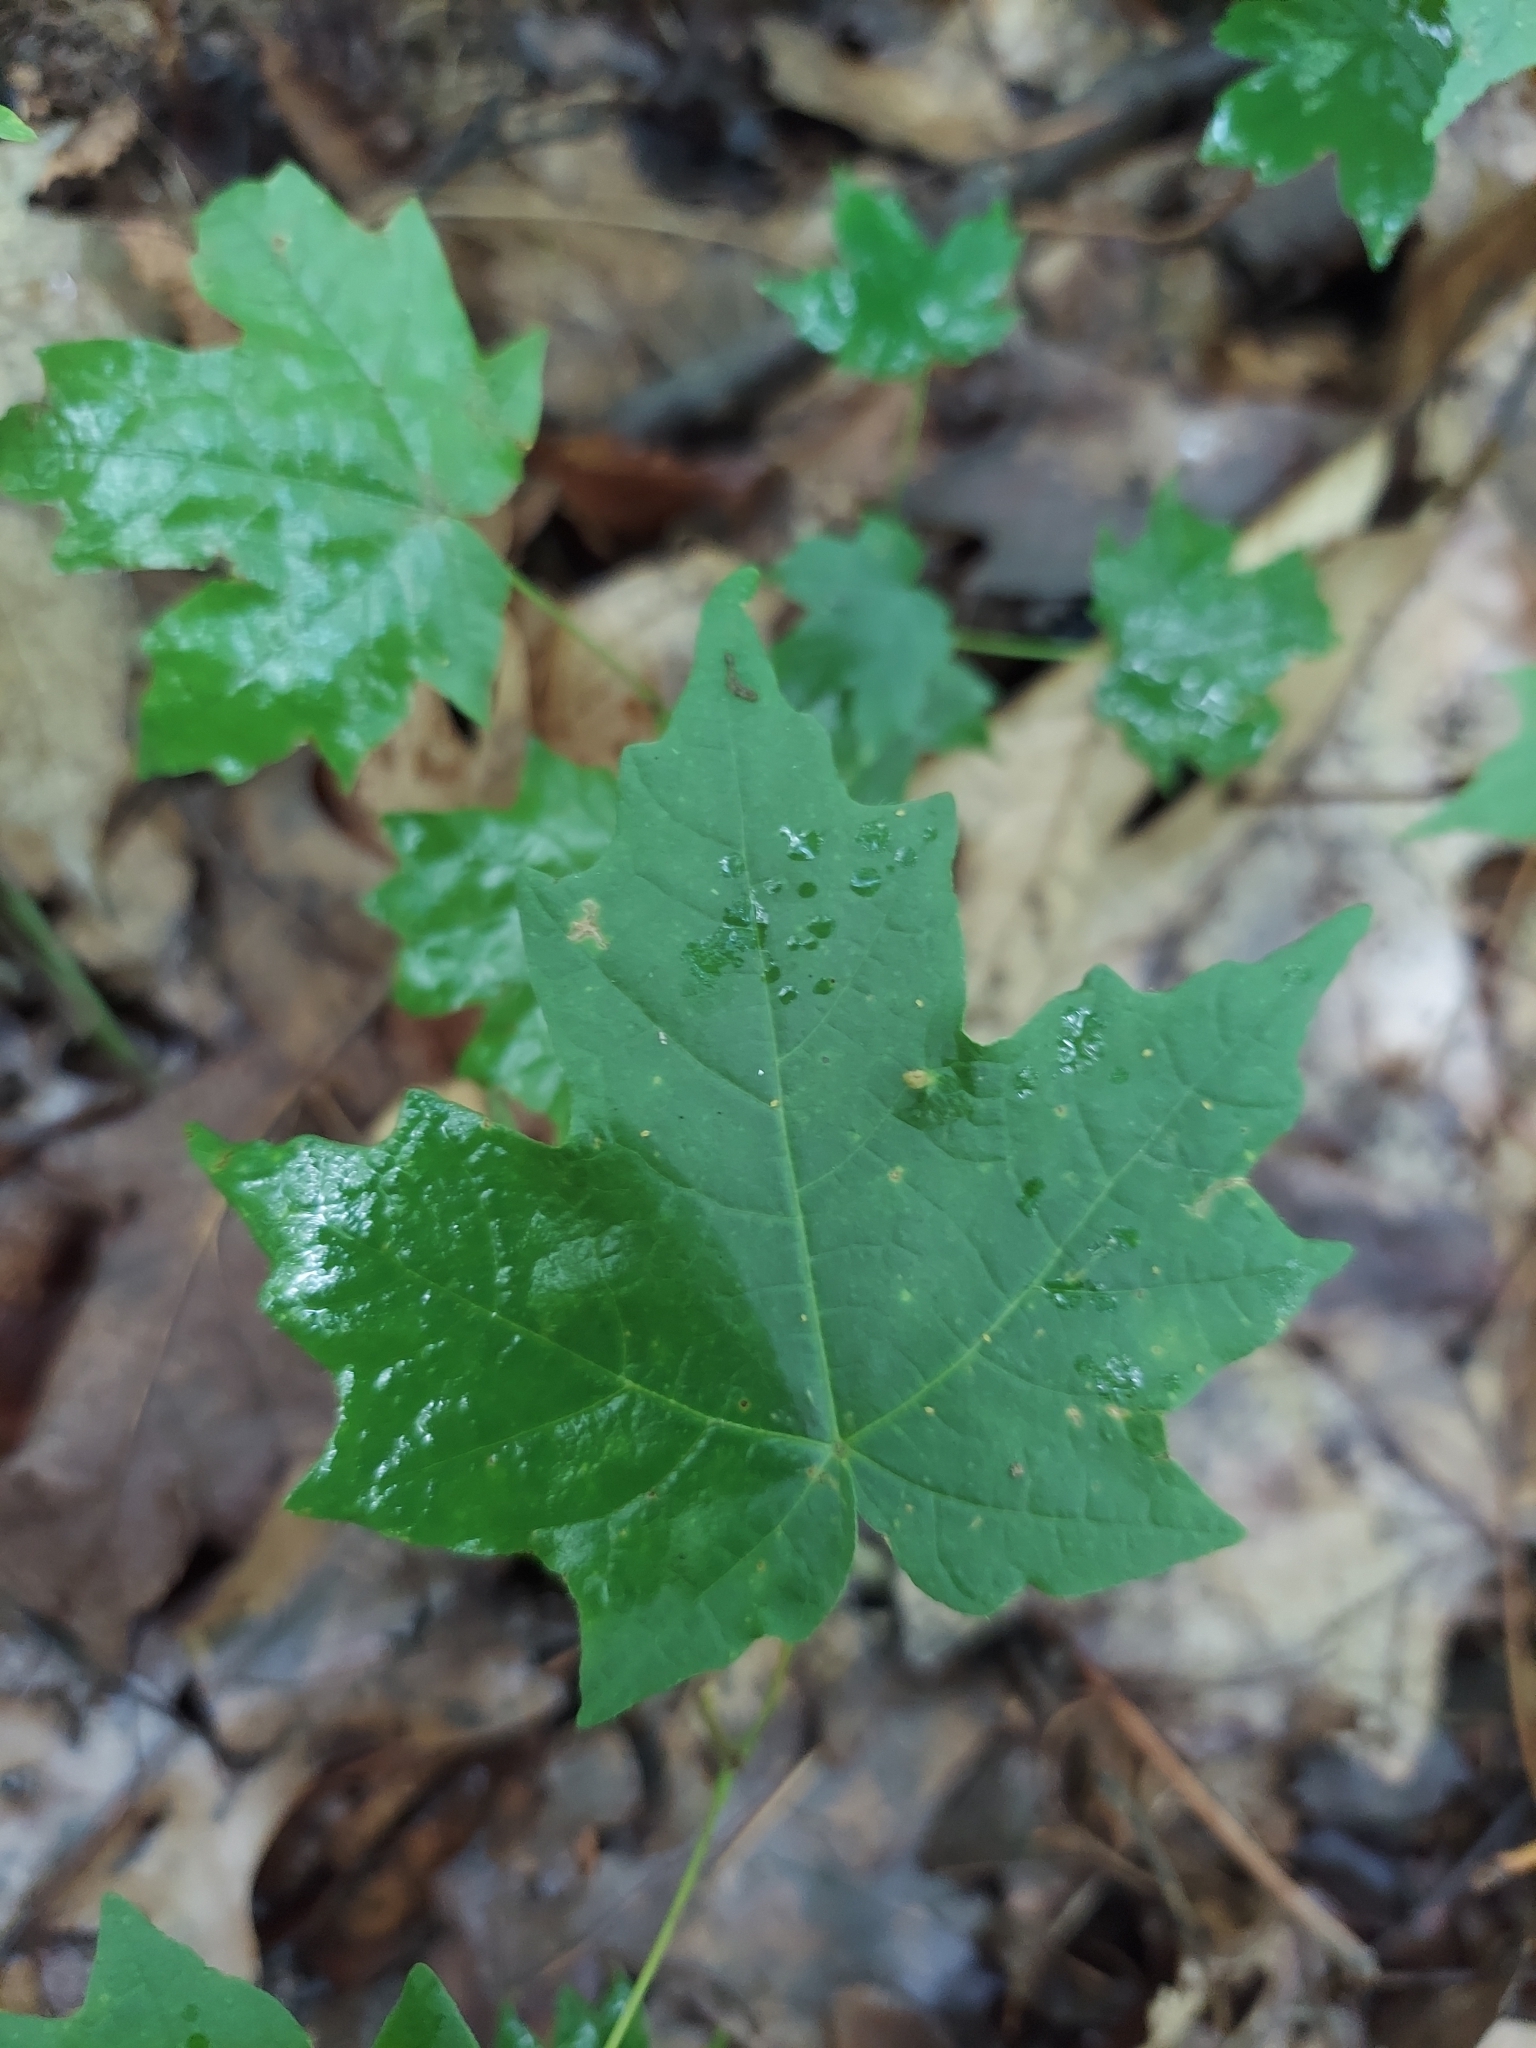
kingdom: Plantae
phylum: Tracheophyta
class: Magnoliopsida
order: Sapindales
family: Sapindaceae
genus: Acer
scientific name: Acer saccharum
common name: Sugar maple
